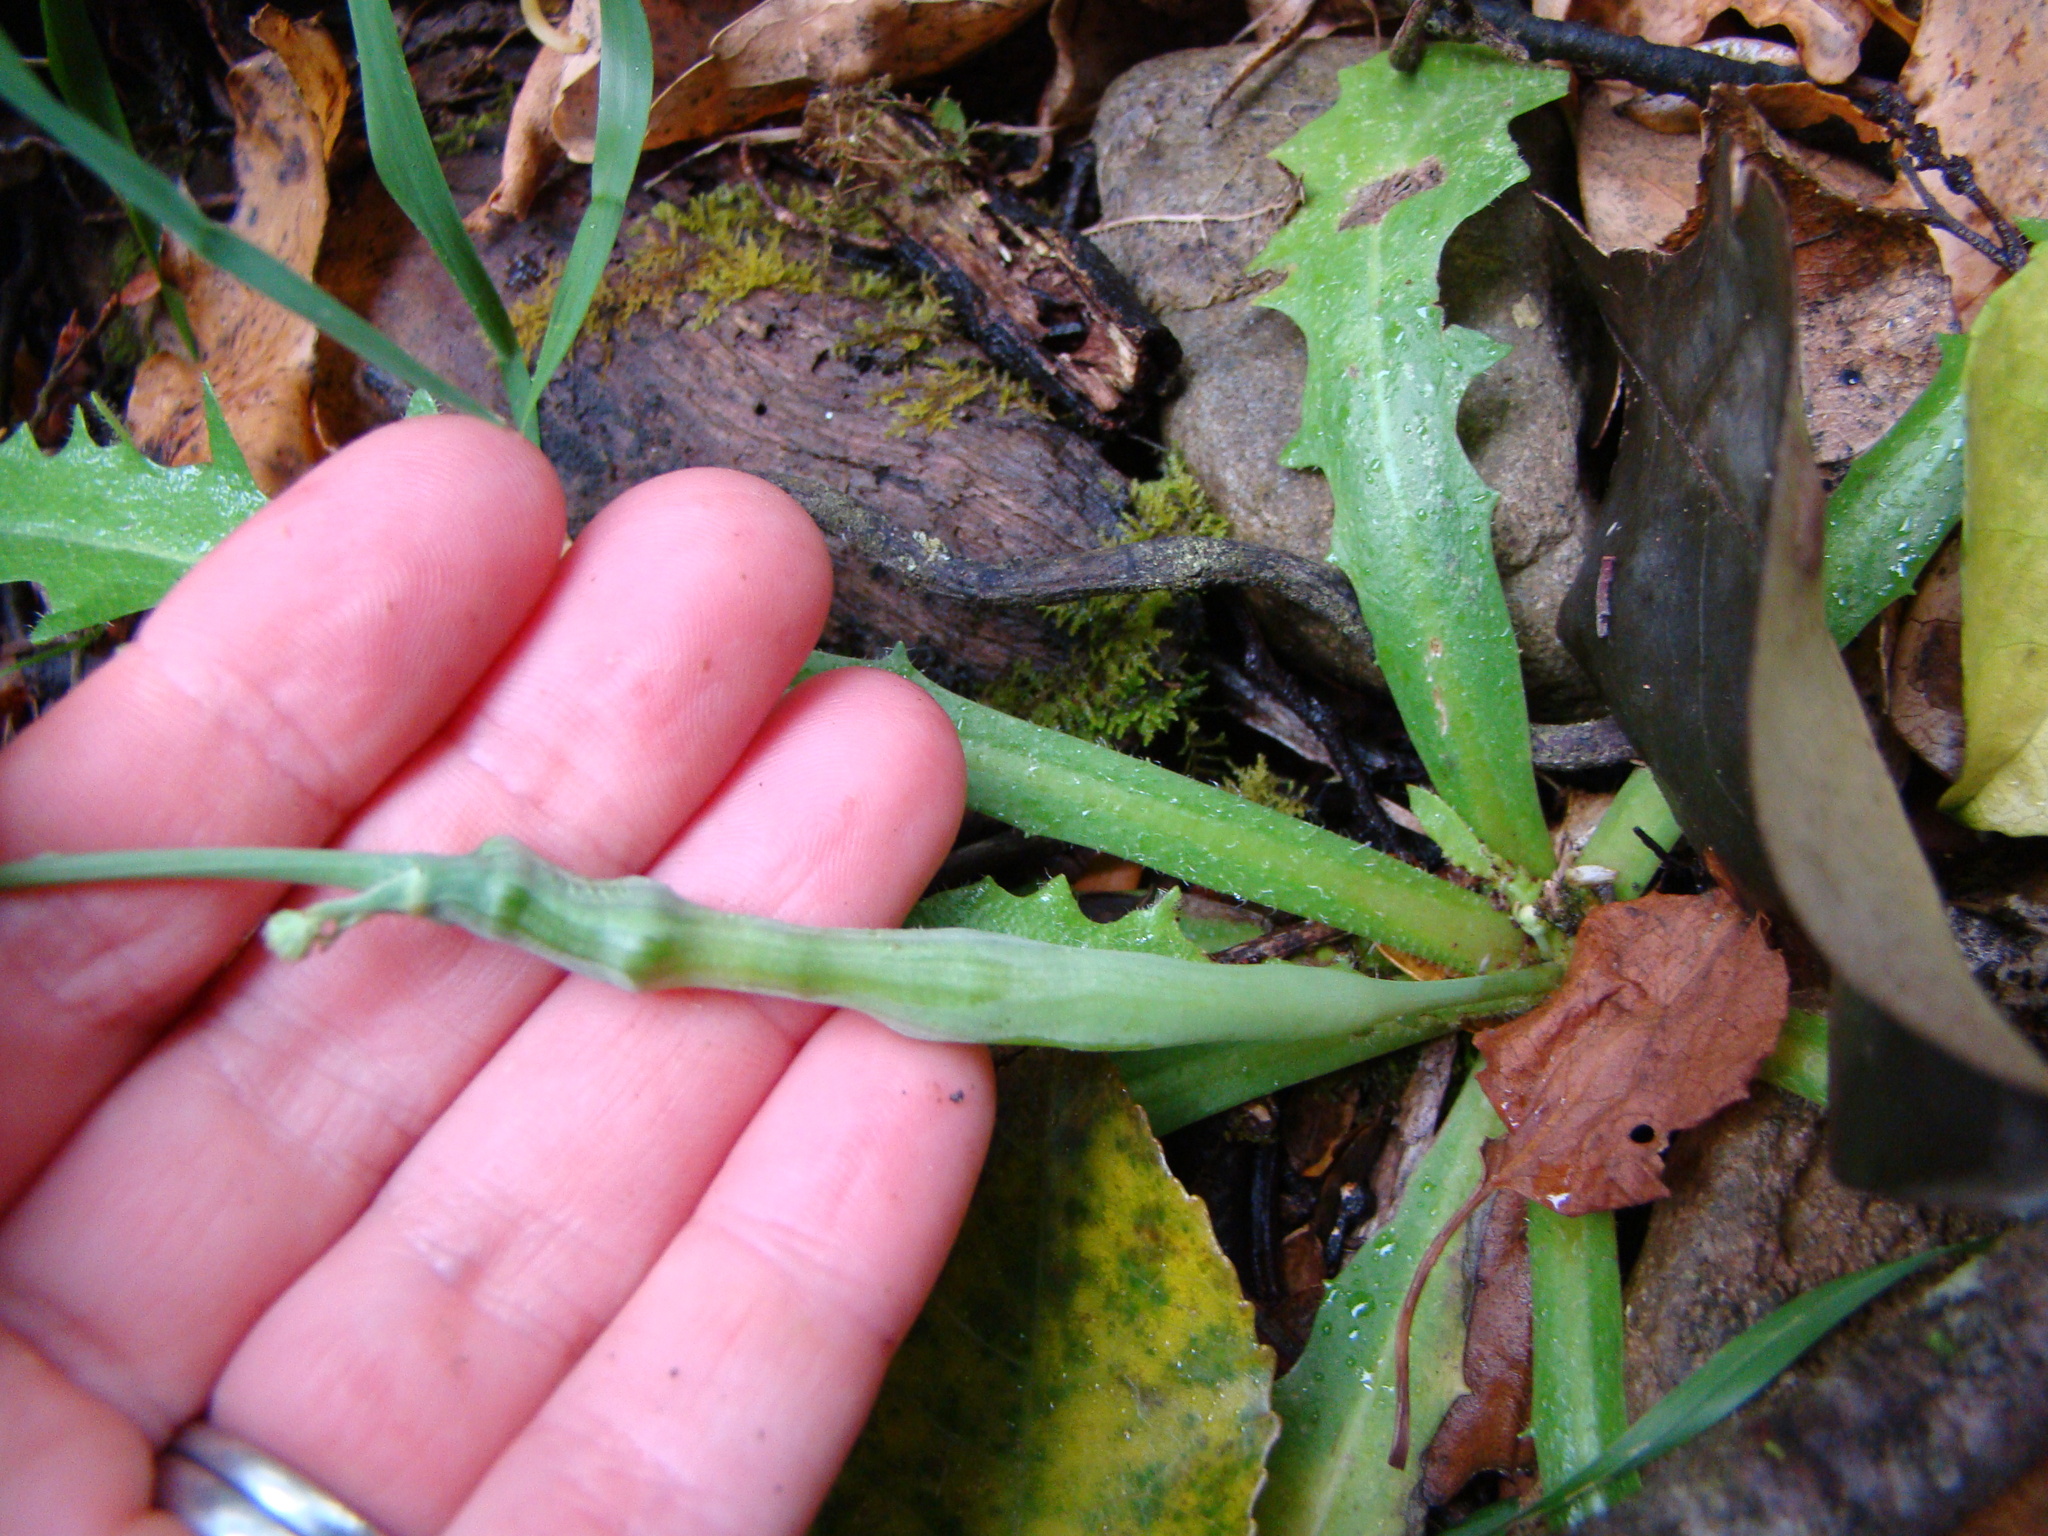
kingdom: Animalia
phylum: Arthropoda
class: Insecta
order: Hymenoptera
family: Cynipidae
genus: Phanacis
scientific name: Phanacis hypochoeridis
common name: Gall wasp
